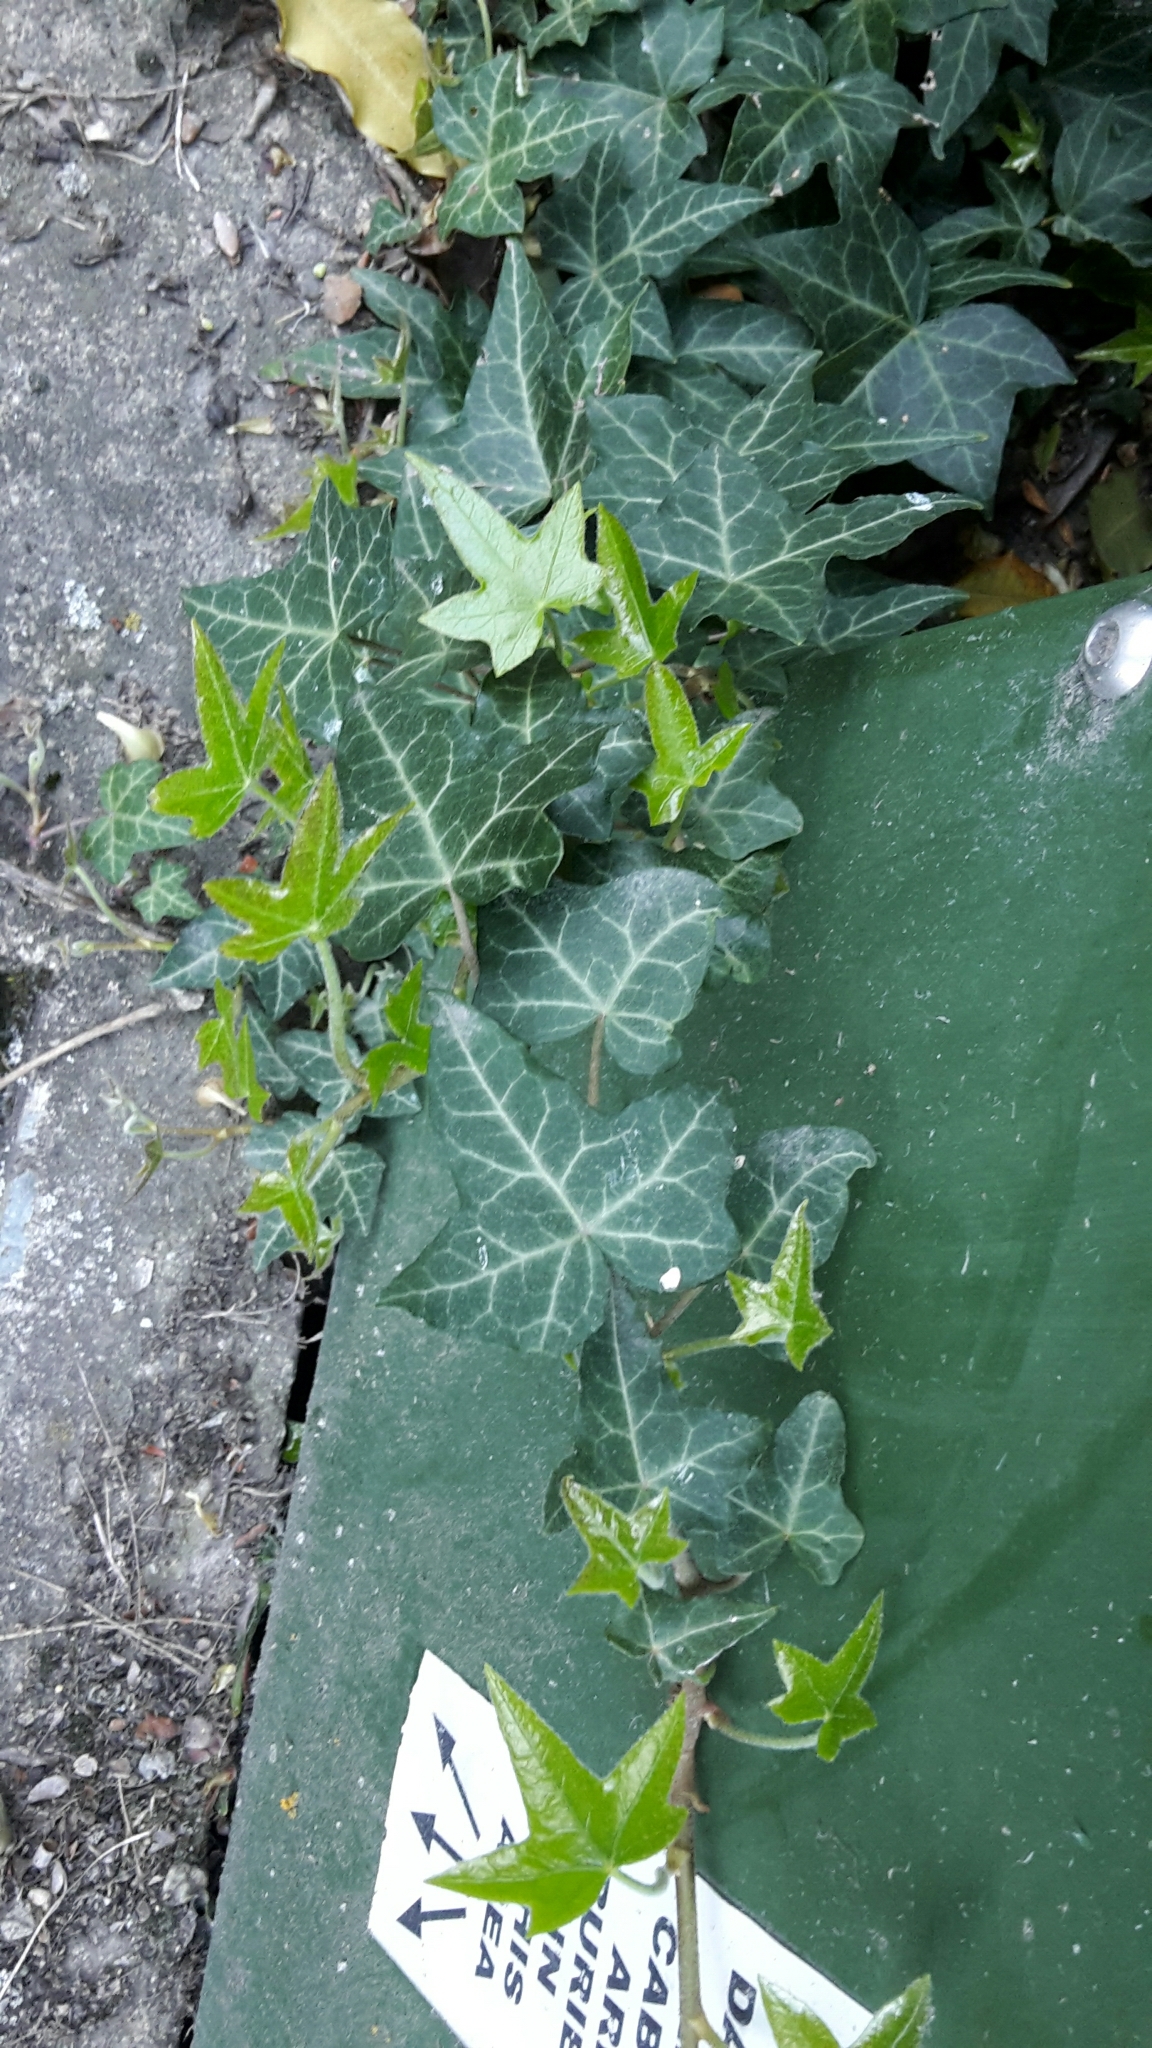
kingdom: Plantae
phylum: Tracheophyta
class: Magnoliopsida
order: Apiales
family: Araliaceae
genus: Hedera
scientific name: Hedera helix
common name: Ivy
